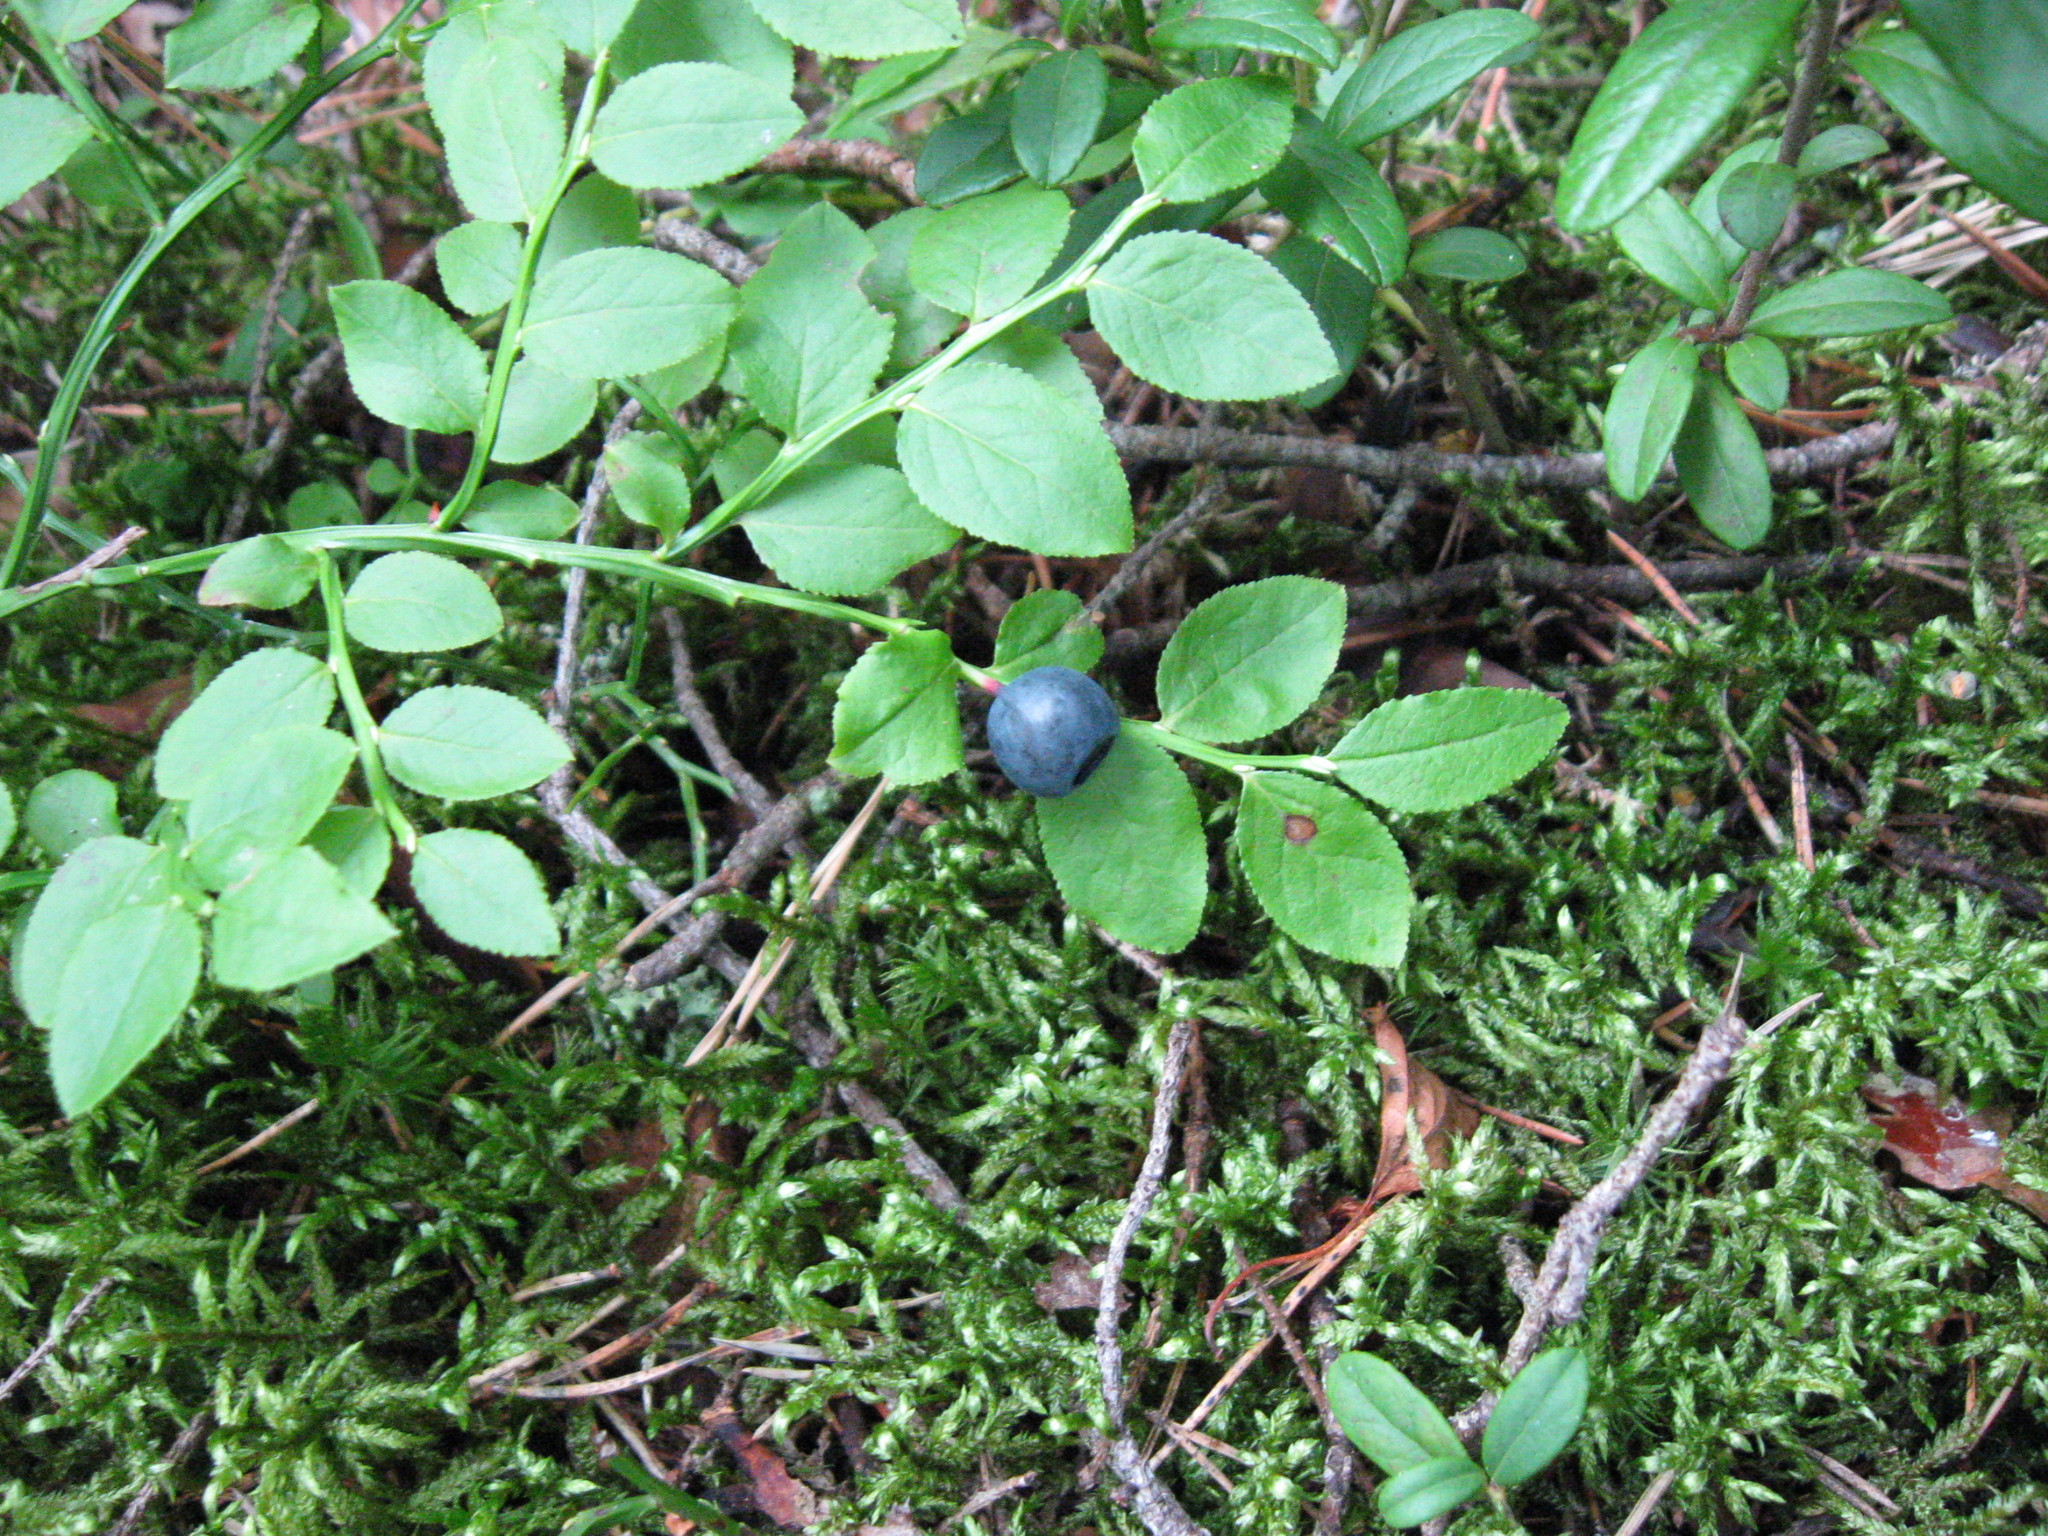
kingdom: Plantae
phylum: Tracheophyta
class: Magnoliopsida
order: Ericales
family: Ericaceae
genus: Vaccinium
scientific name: Vaccinium myrtillus
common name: Bilberry
